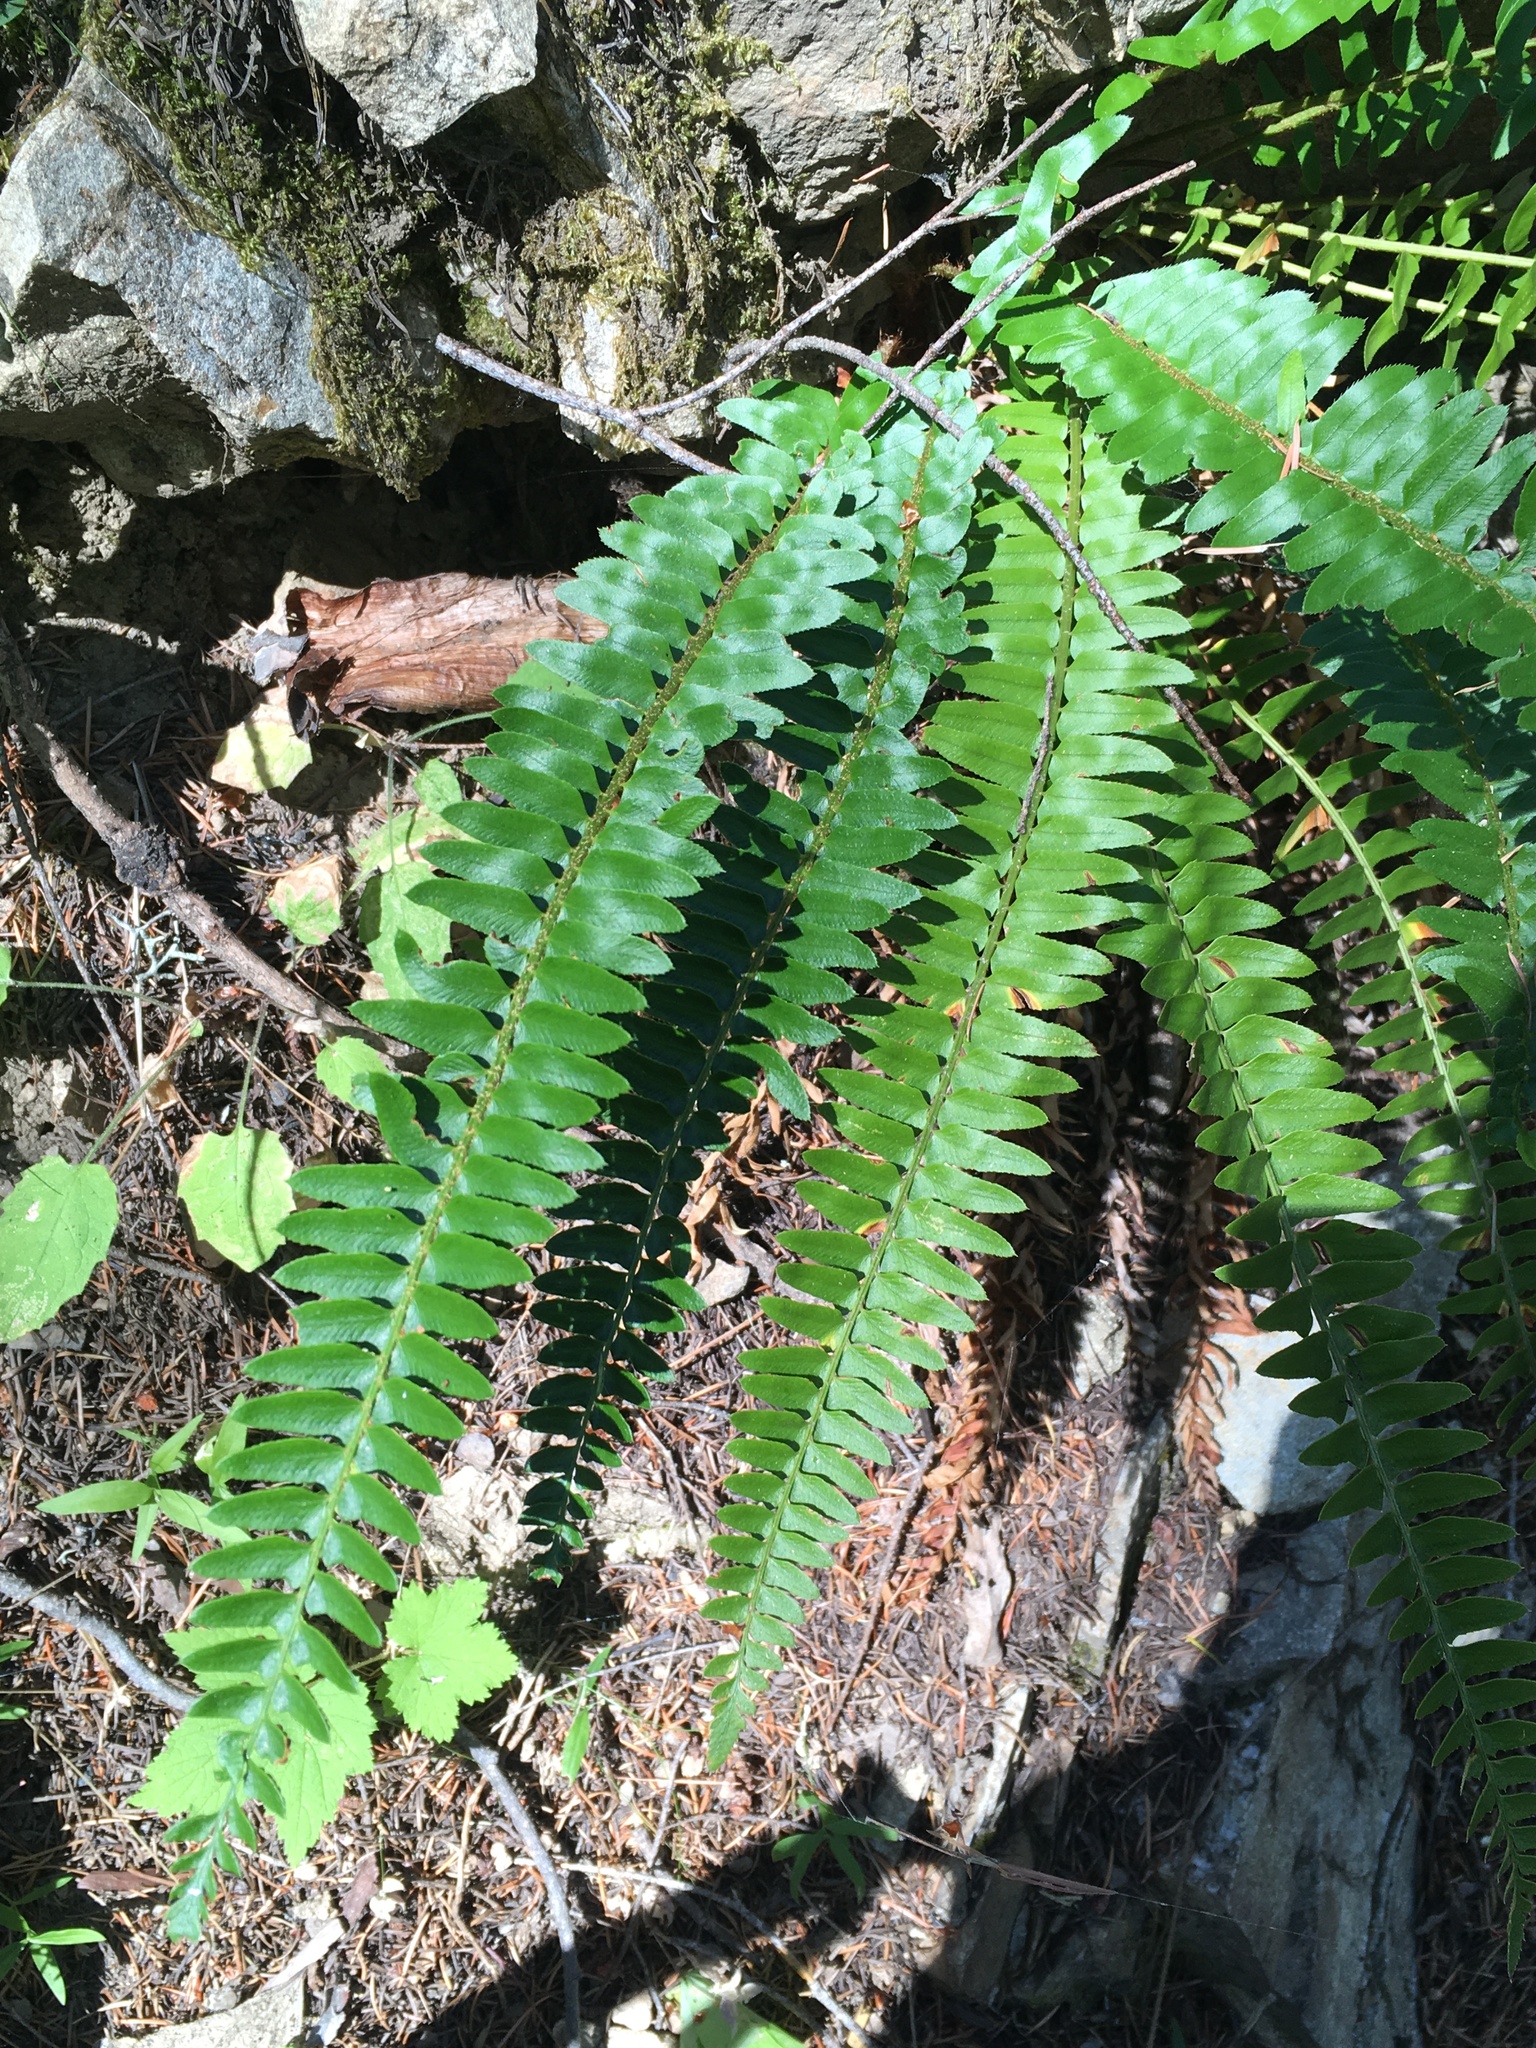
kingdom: Plantae
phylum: Tracheophyta
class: Polypodiopsida
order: Polypodiales
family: Dryopteridaceae
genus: Polystichum
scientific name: Polystichum imbricans
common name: Dwarf western sword fern
